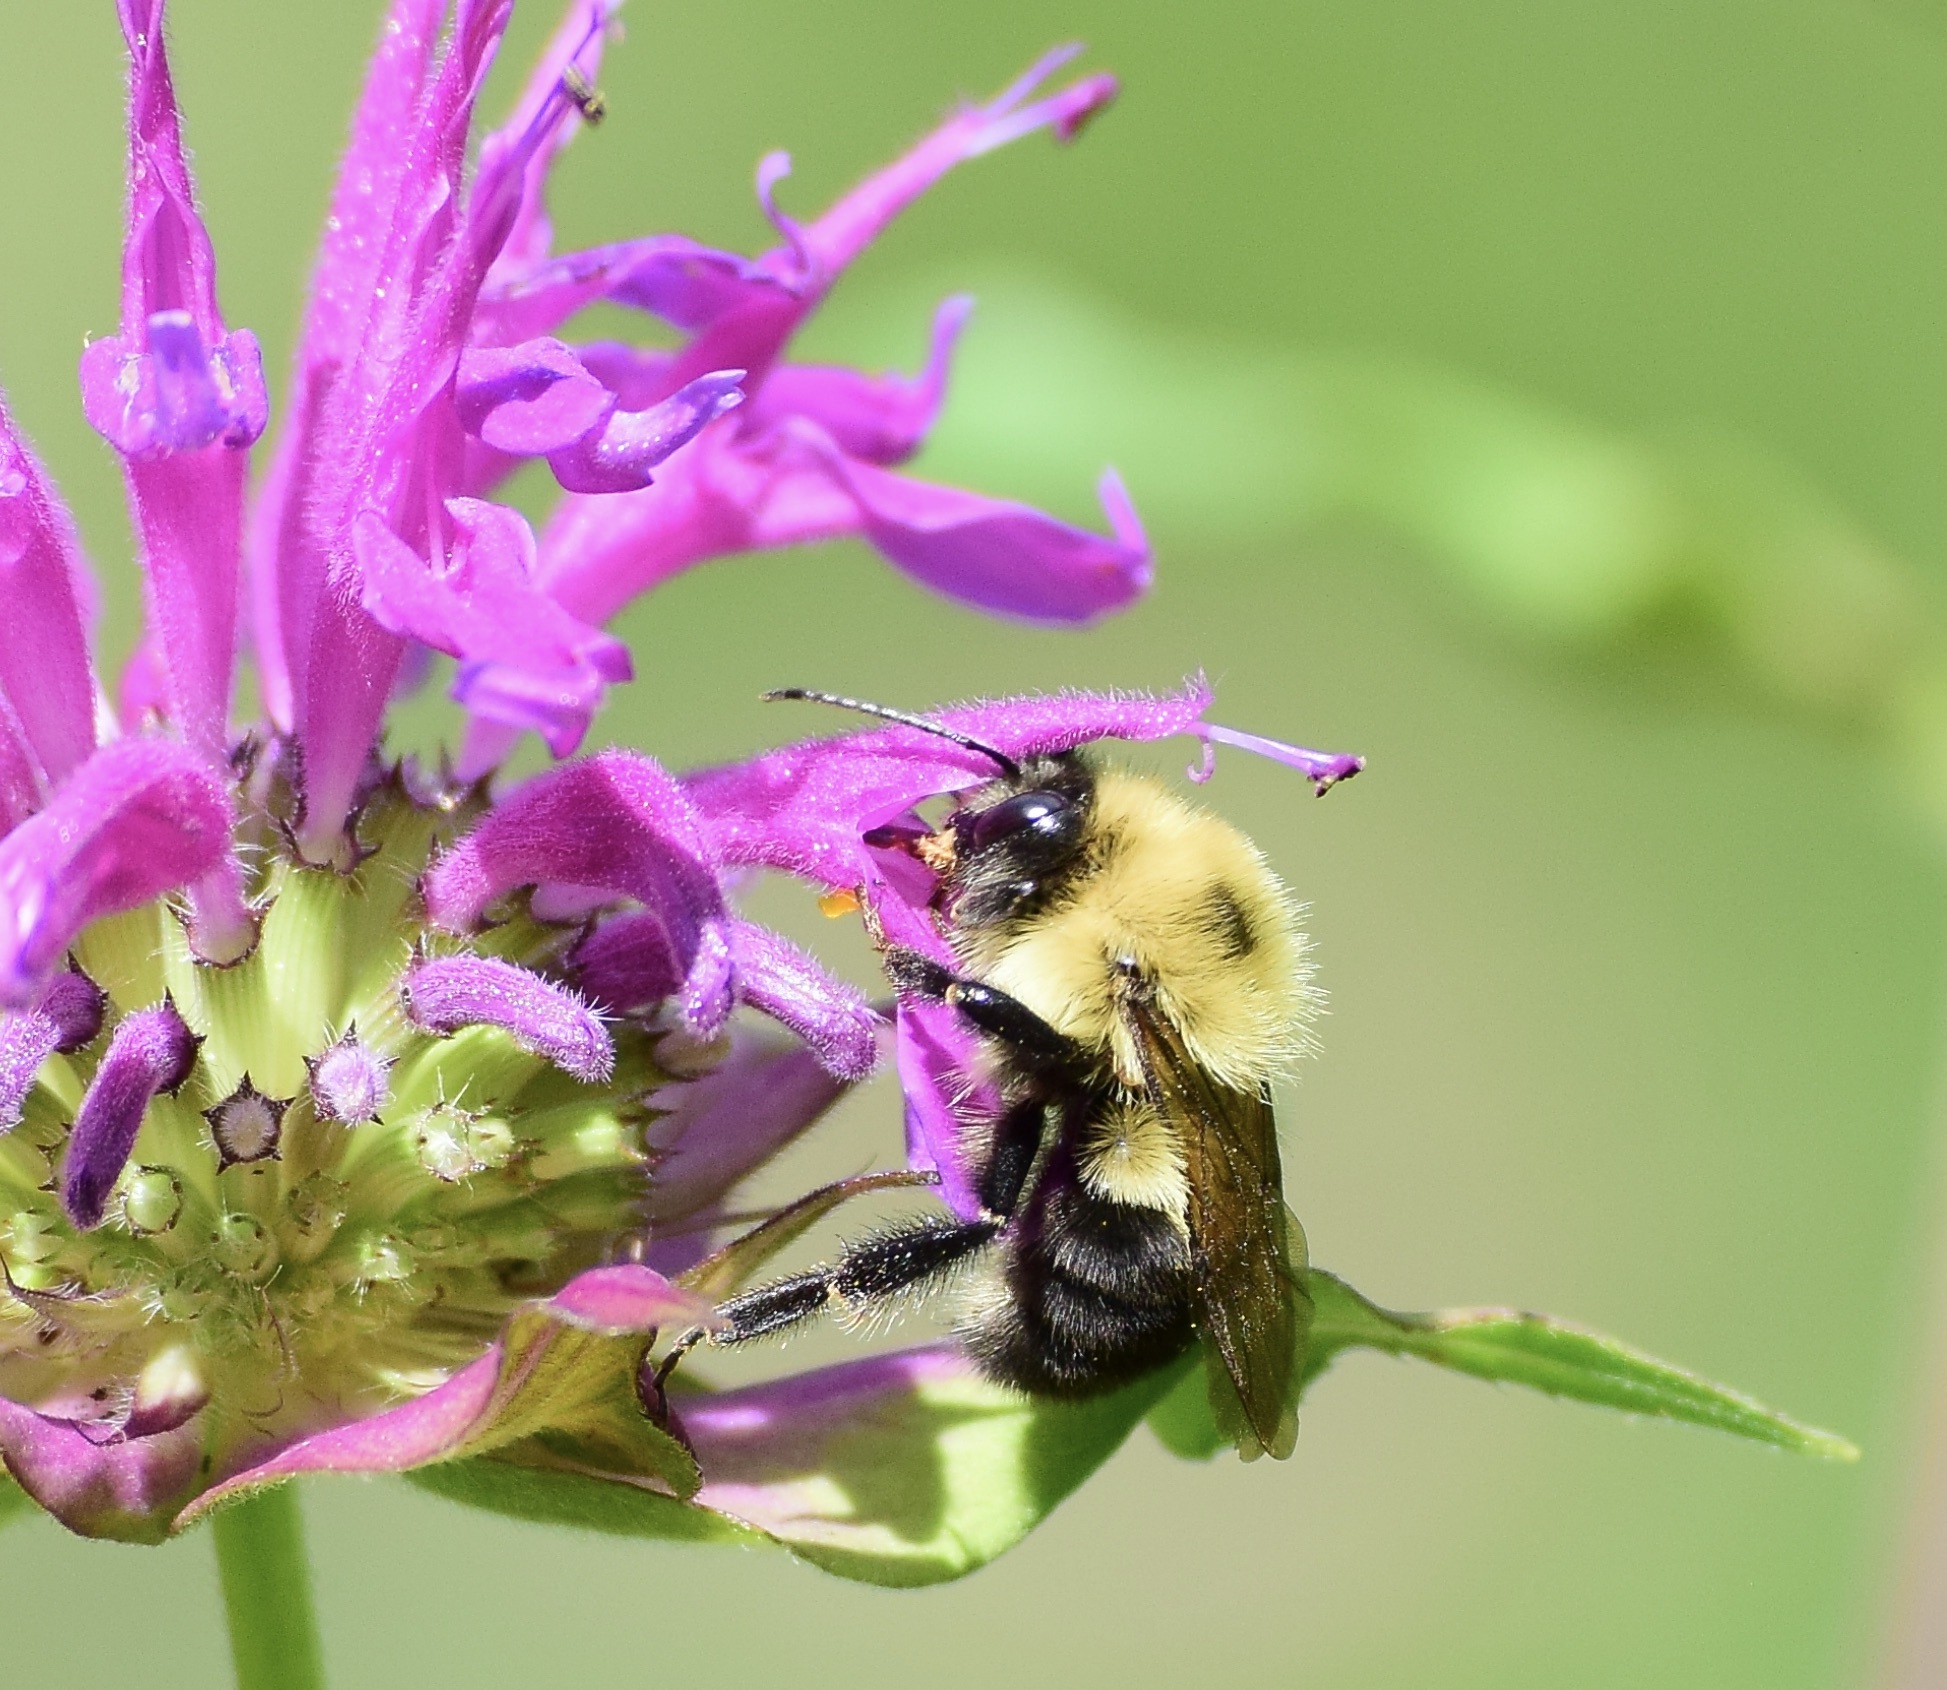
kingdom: Animalia
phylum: Arthropoda
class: Insecta
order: Hymenoptera
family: Apidae
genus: Bombus
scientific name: Bombus bimaculatus
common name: Two-spotted bumble bee
